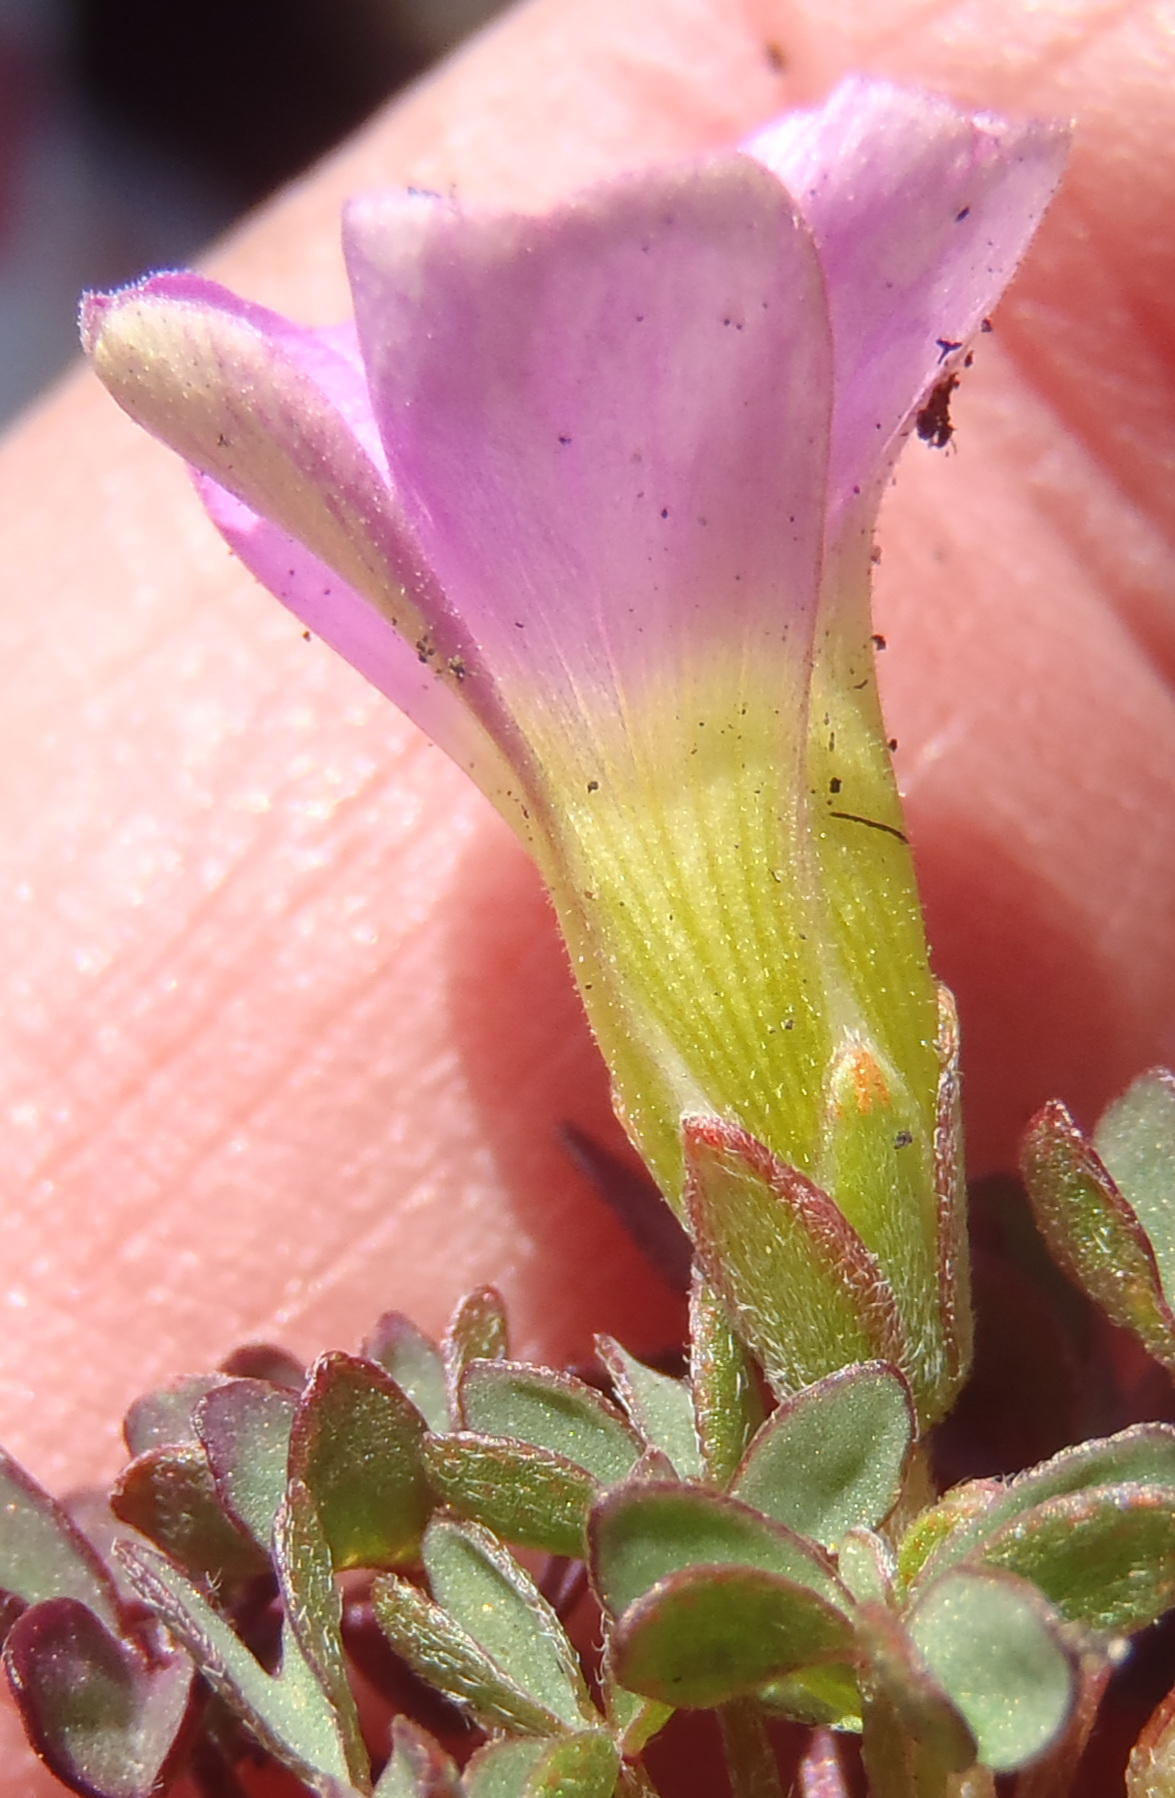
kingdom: Plantae
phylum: Tracheophyta
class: Magnoliopsida
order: Oxalidales
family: Oxalidaceae
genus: Oxalis
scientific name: Oxalis heterophylla
